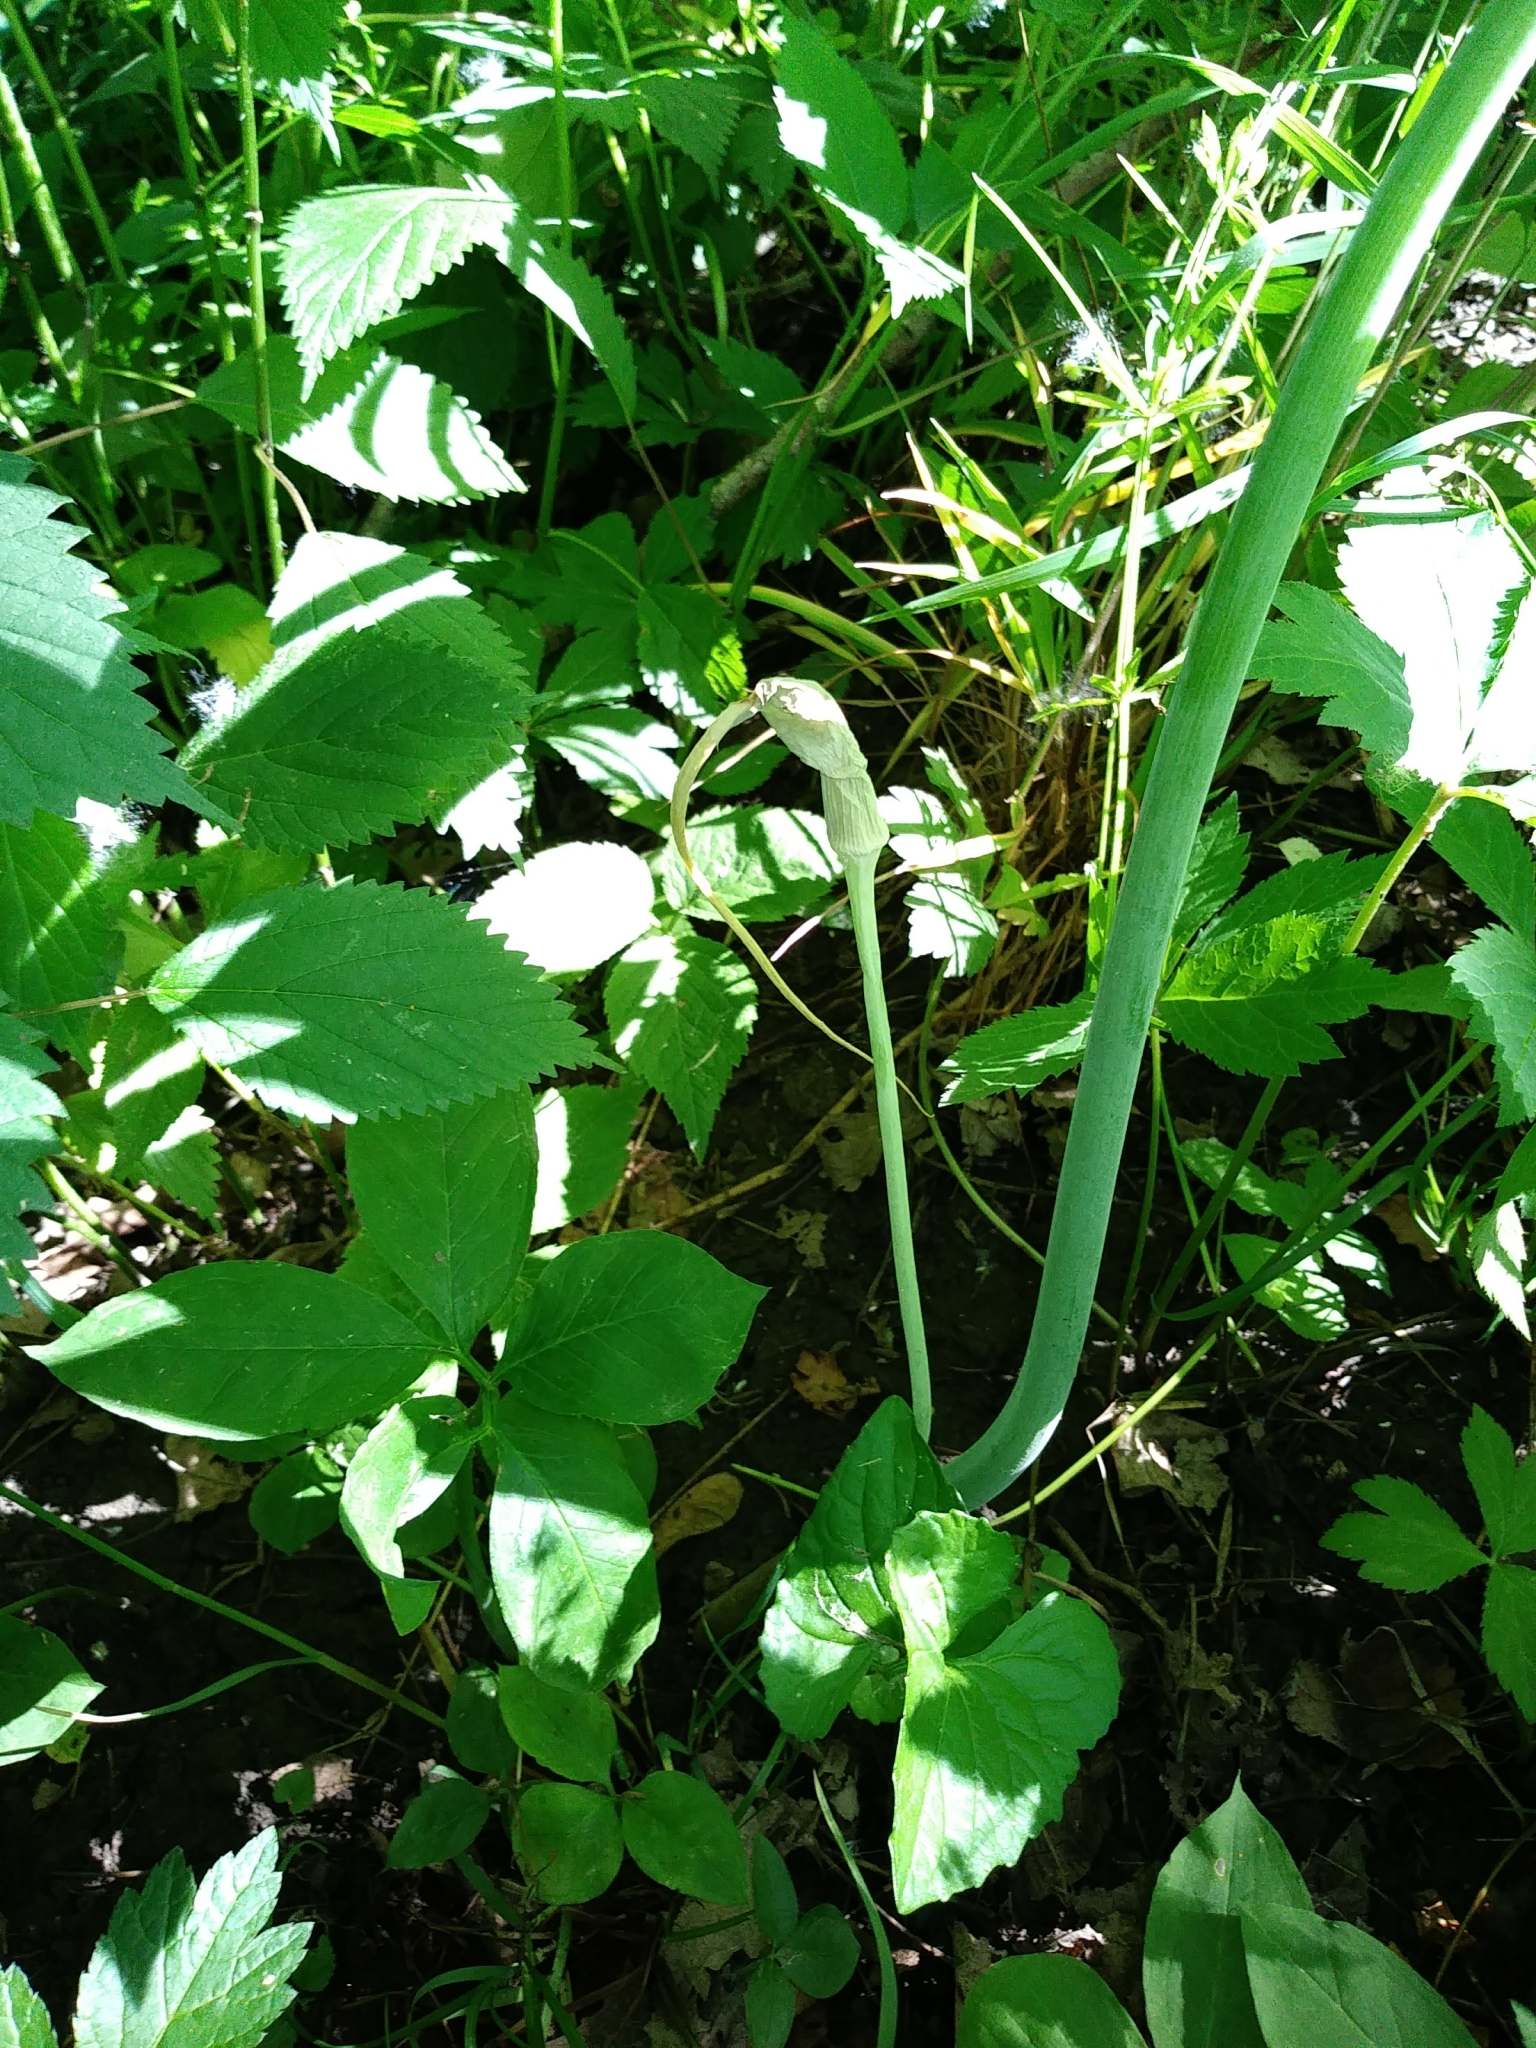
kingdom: Plantae
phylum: Tracheophyta
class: Liliopsida
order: Alismatales
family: Araceae
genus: Arisaema
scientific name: Arisaema dracontium
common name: Dragon-arum
